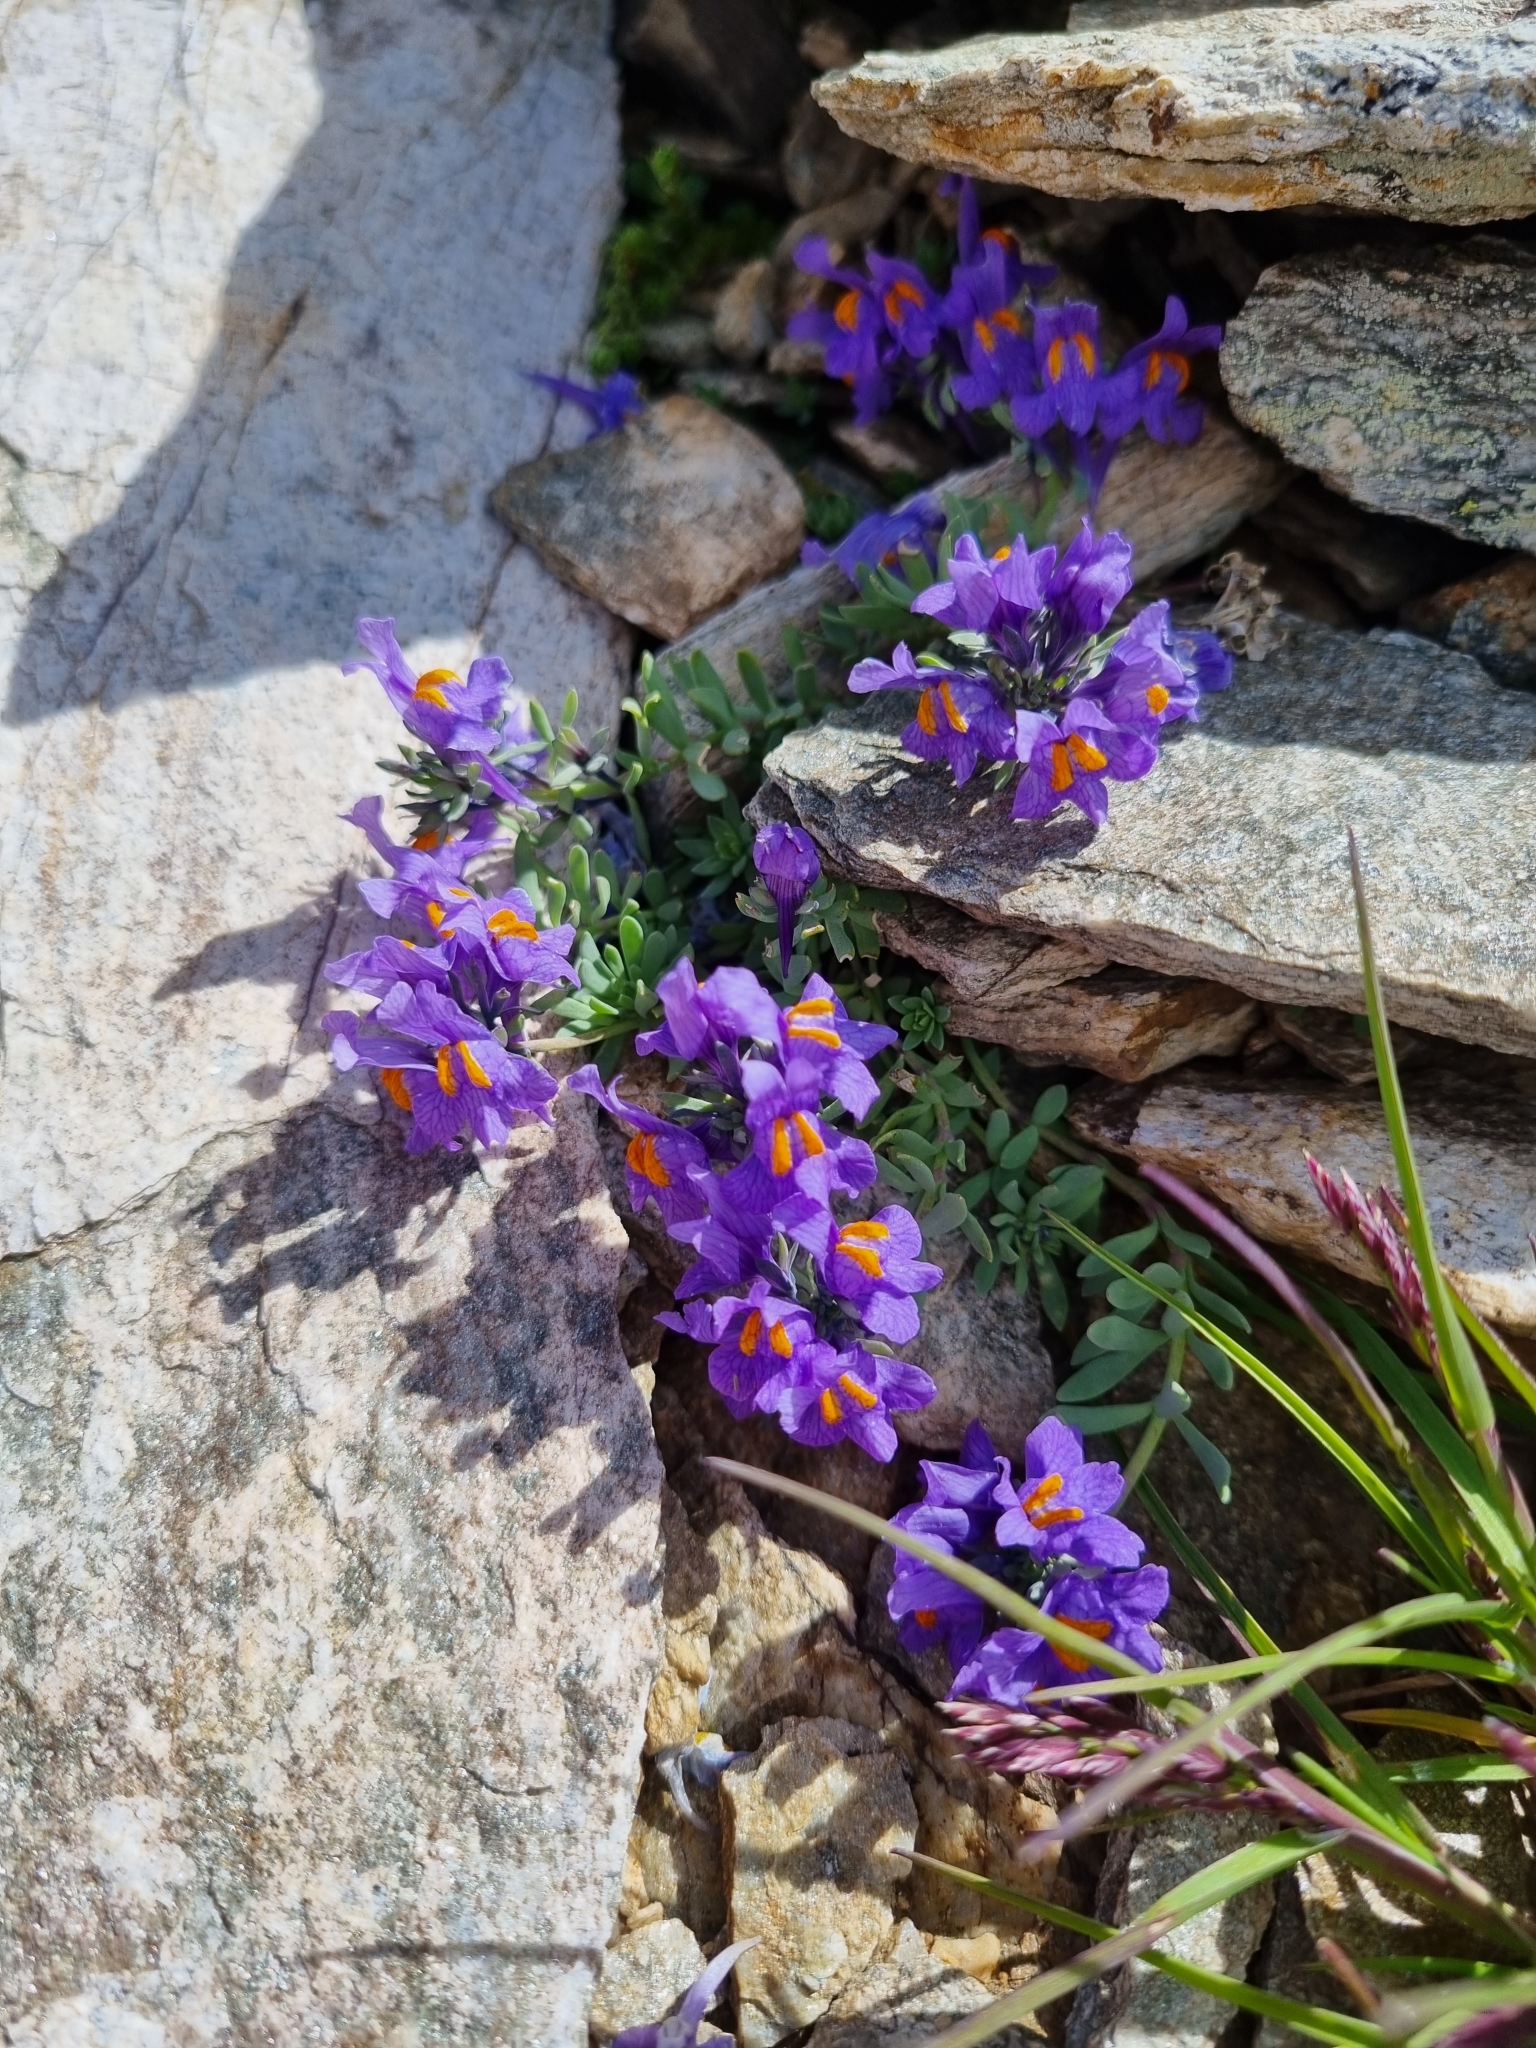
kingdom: Plantae
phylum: Tracheophyta
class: Magnoliopsida
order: Lamiales
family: Plantaginaceae
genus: Linaria
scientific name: Linaria alpina
